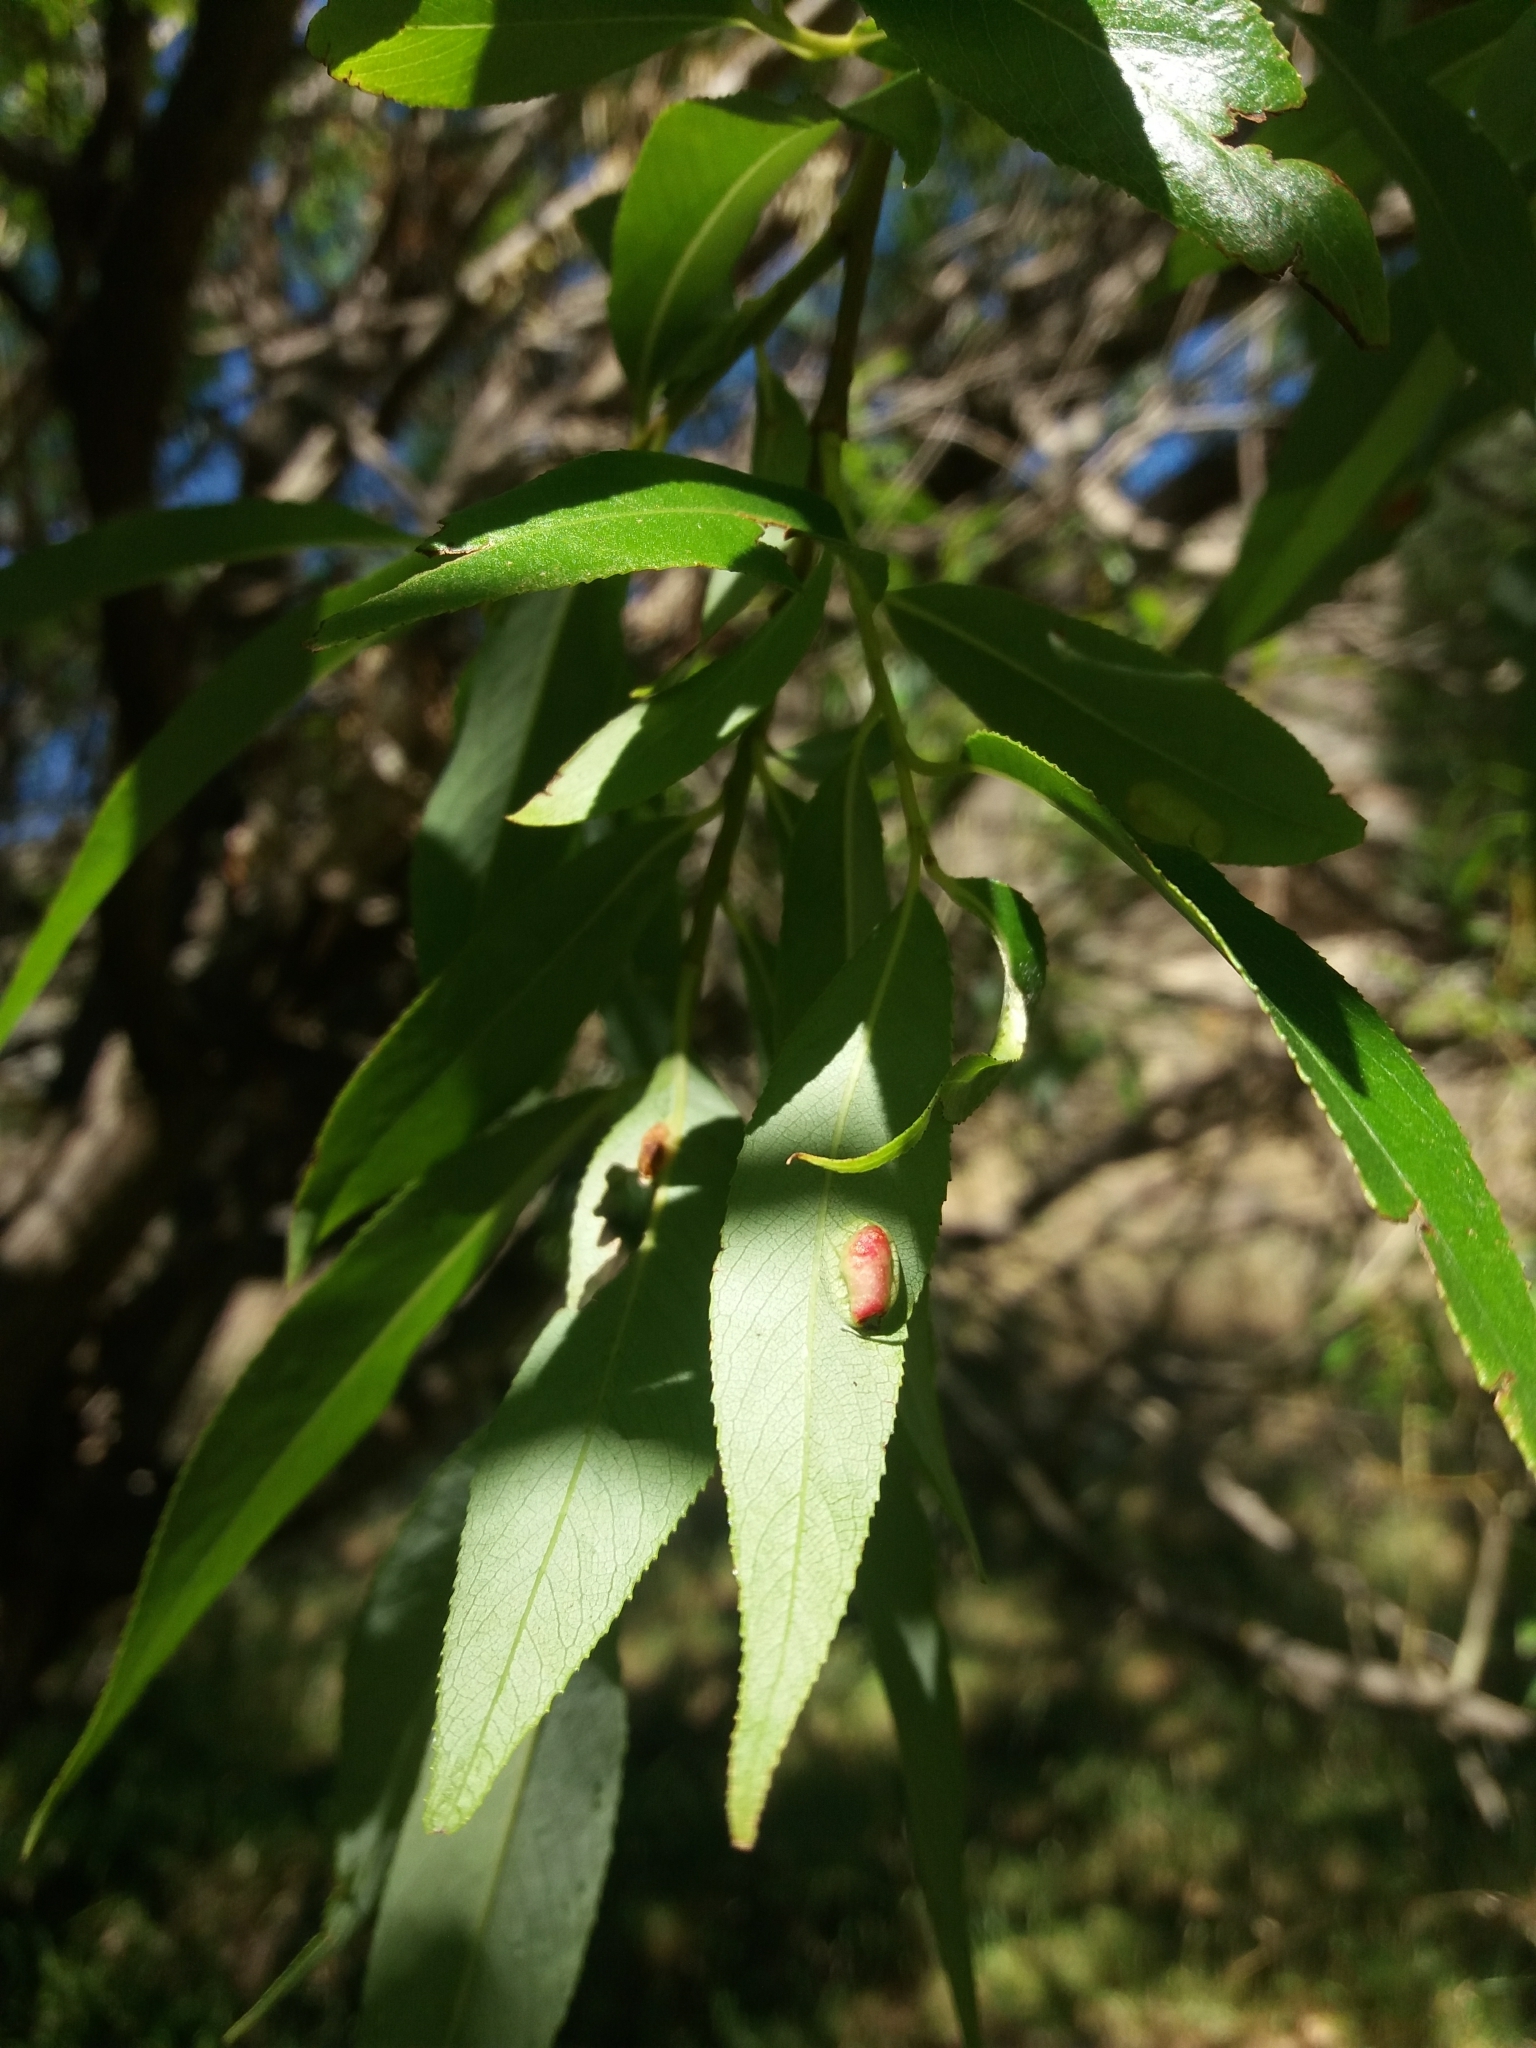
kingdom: Animalia
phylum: Arthropoda
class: Insecta
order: Hymenoptera
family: Tenthredinidae
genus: Pontania
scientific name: Pontania proxima
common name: Common sawfly
